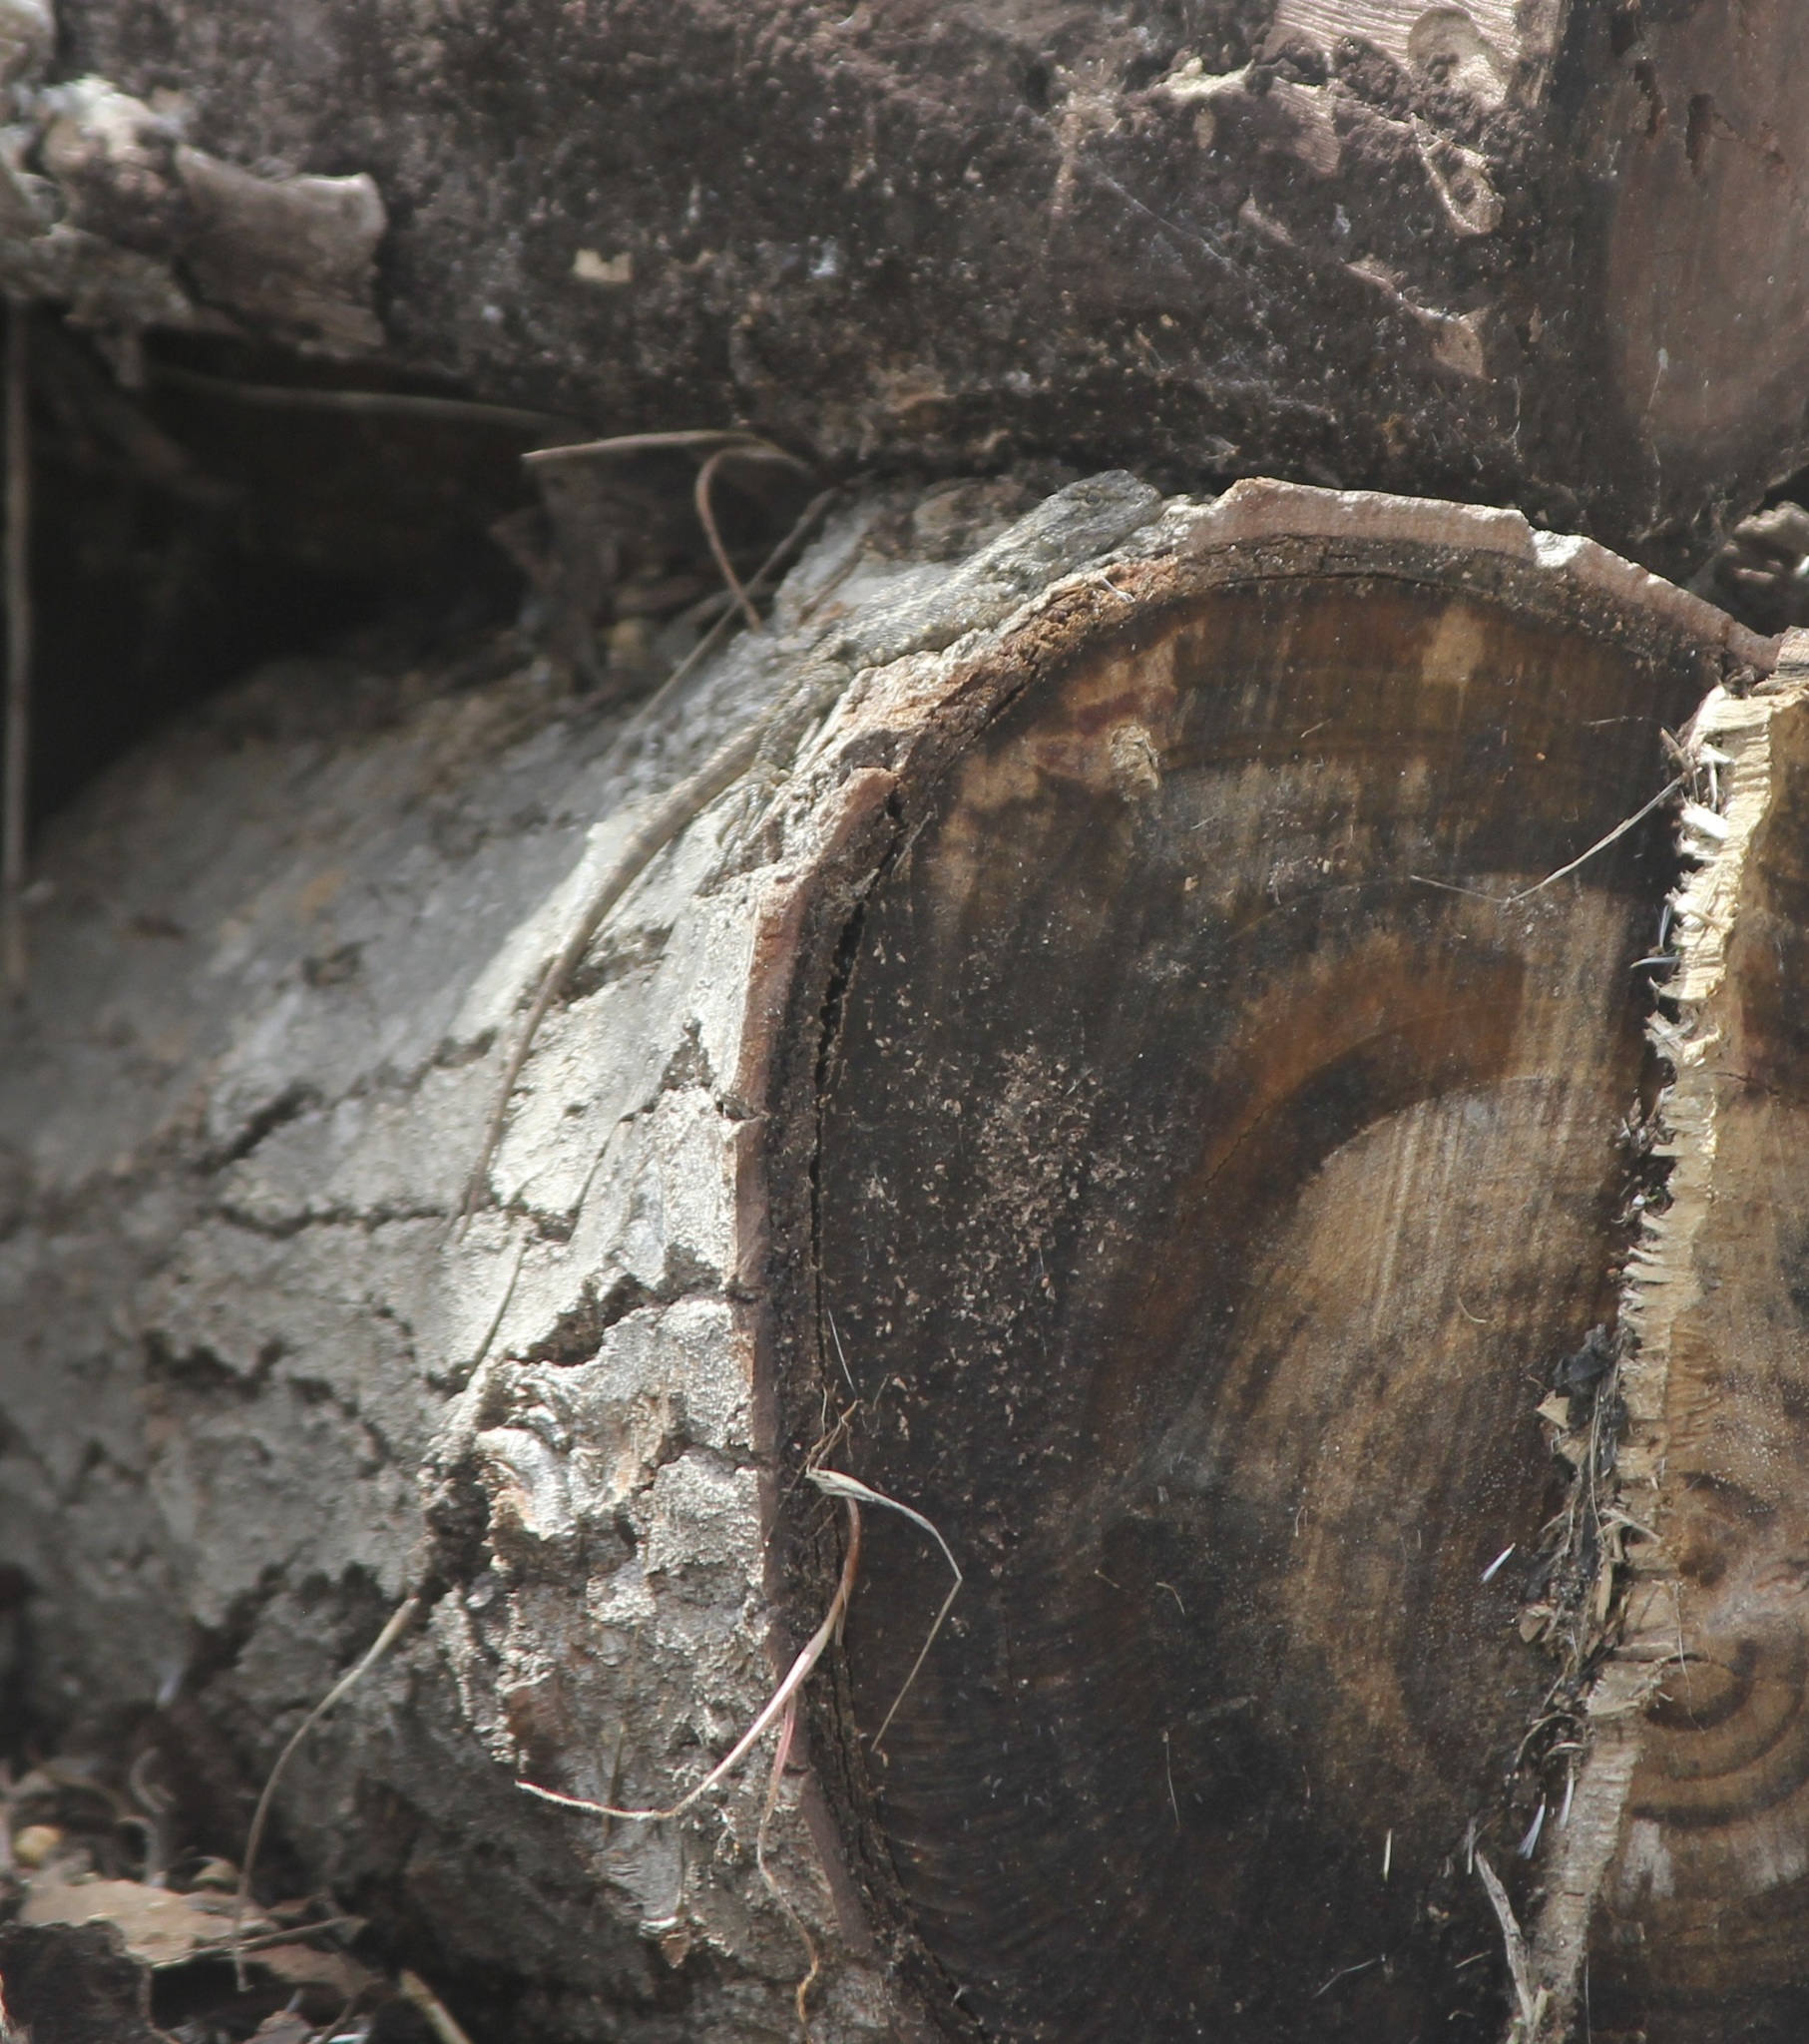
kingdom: Animalia
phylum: Chordata
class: Squamata
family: Phrynosomatidae
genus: Sceloporus
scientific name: Sceloporus occidentalis
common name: Western fence lizard
